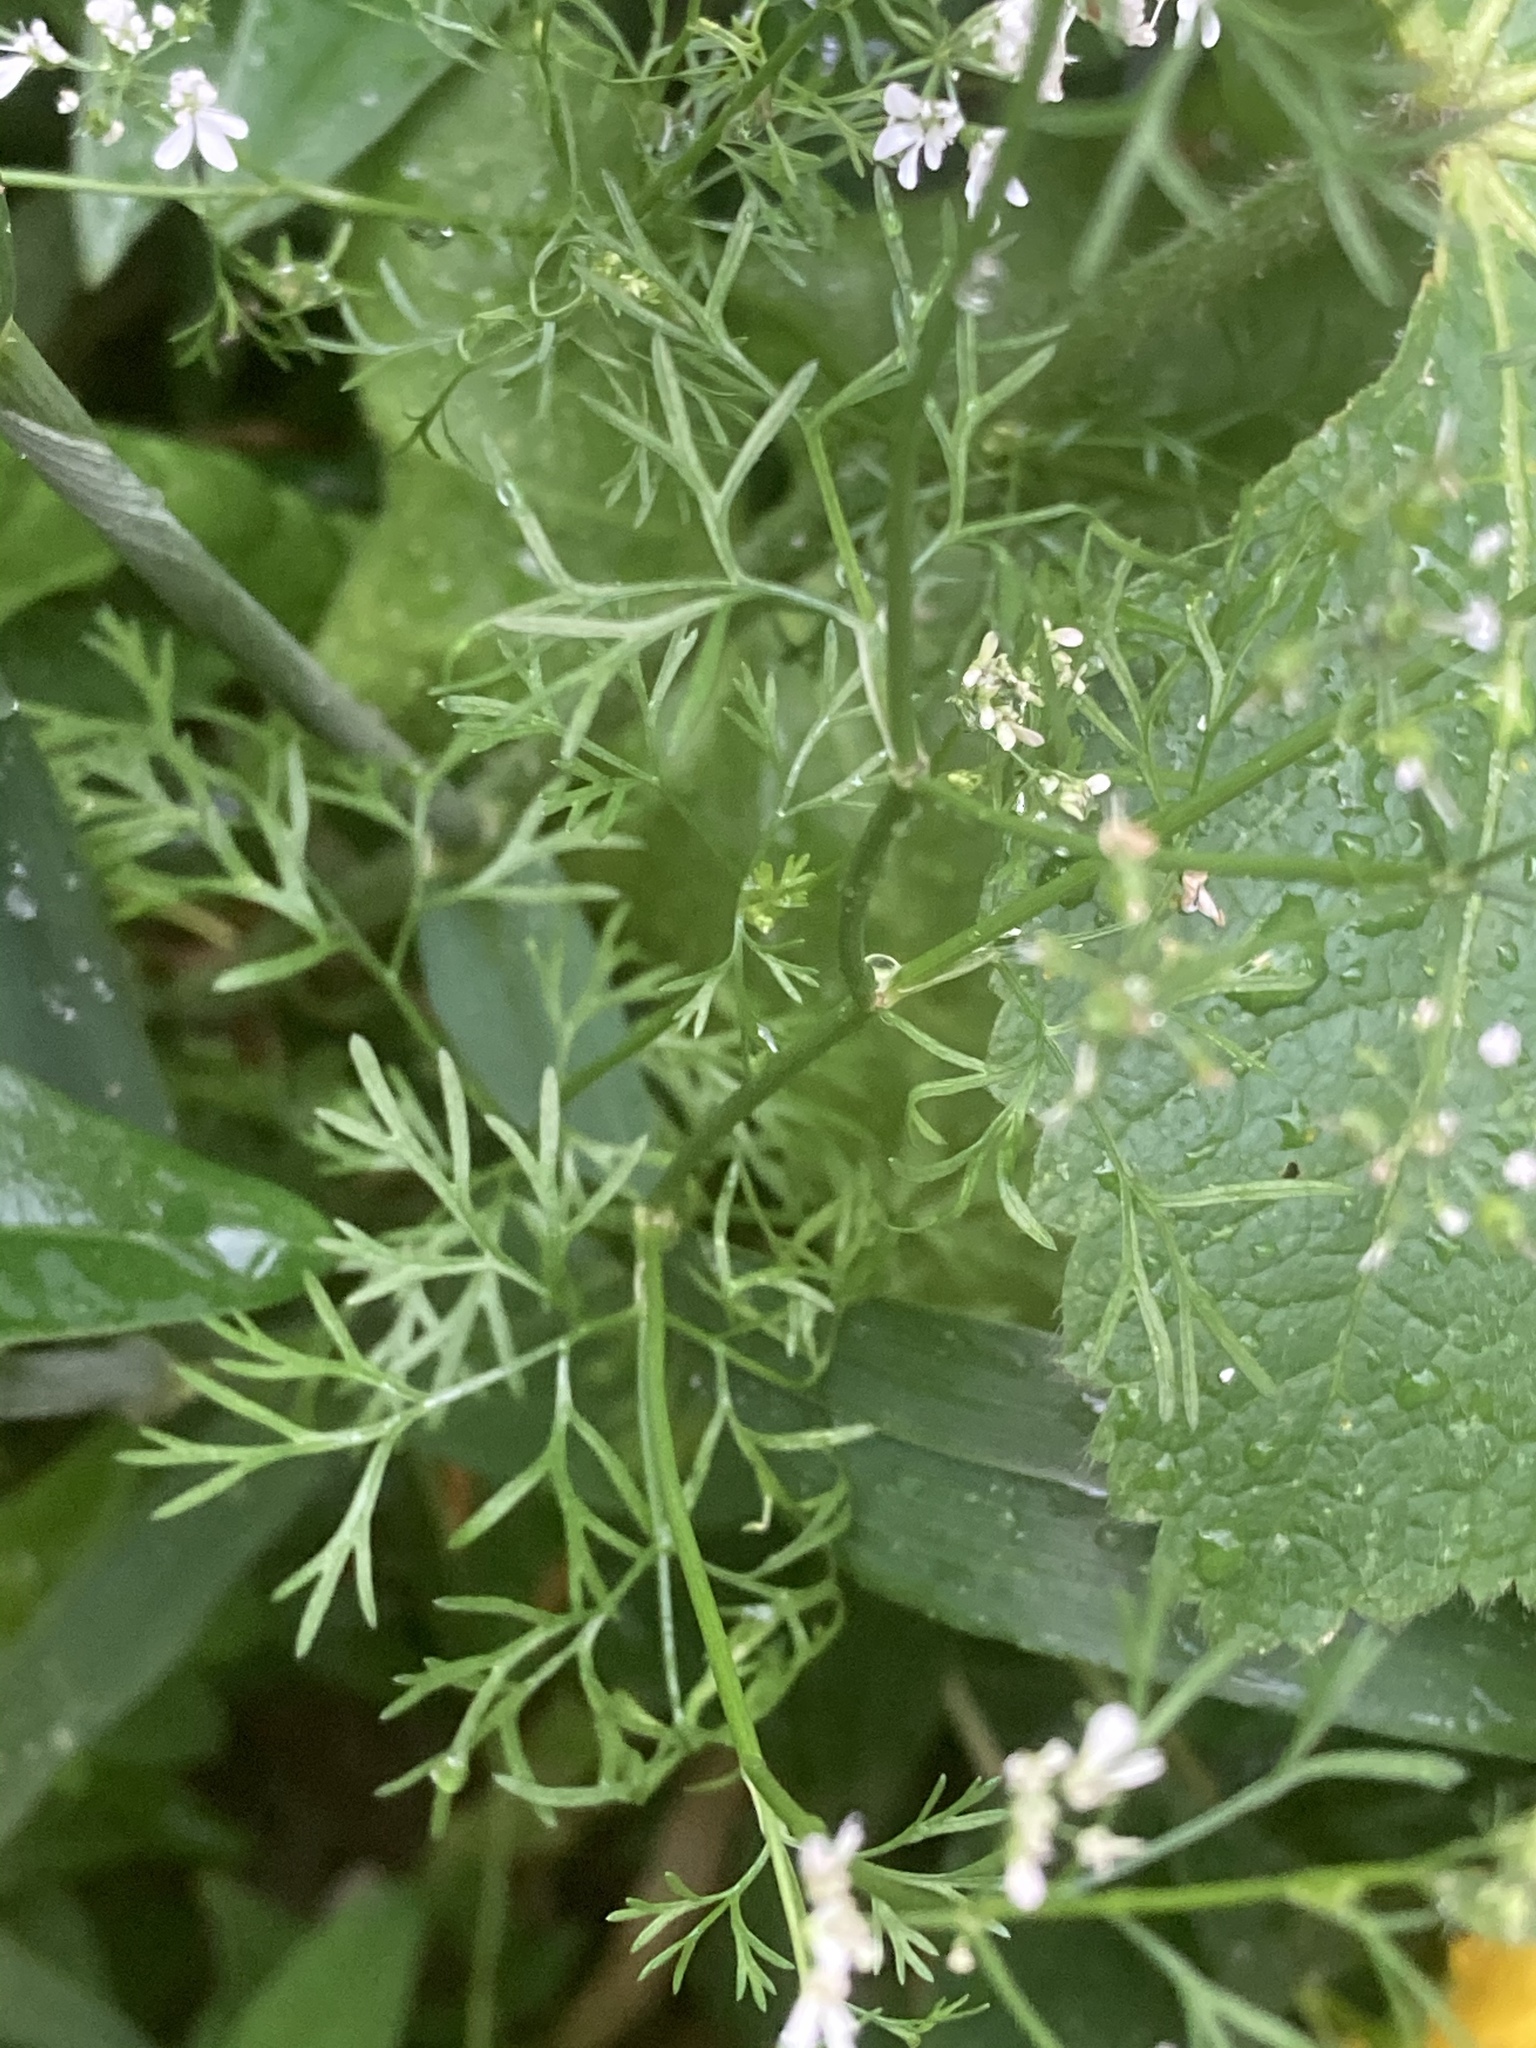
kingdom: Plantae
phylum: Tracheophyta
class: Magnoliopsida
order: Apiales
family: Apiaceae
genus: Coriandrum
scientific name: Coriandrum sativum
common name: Coriander
